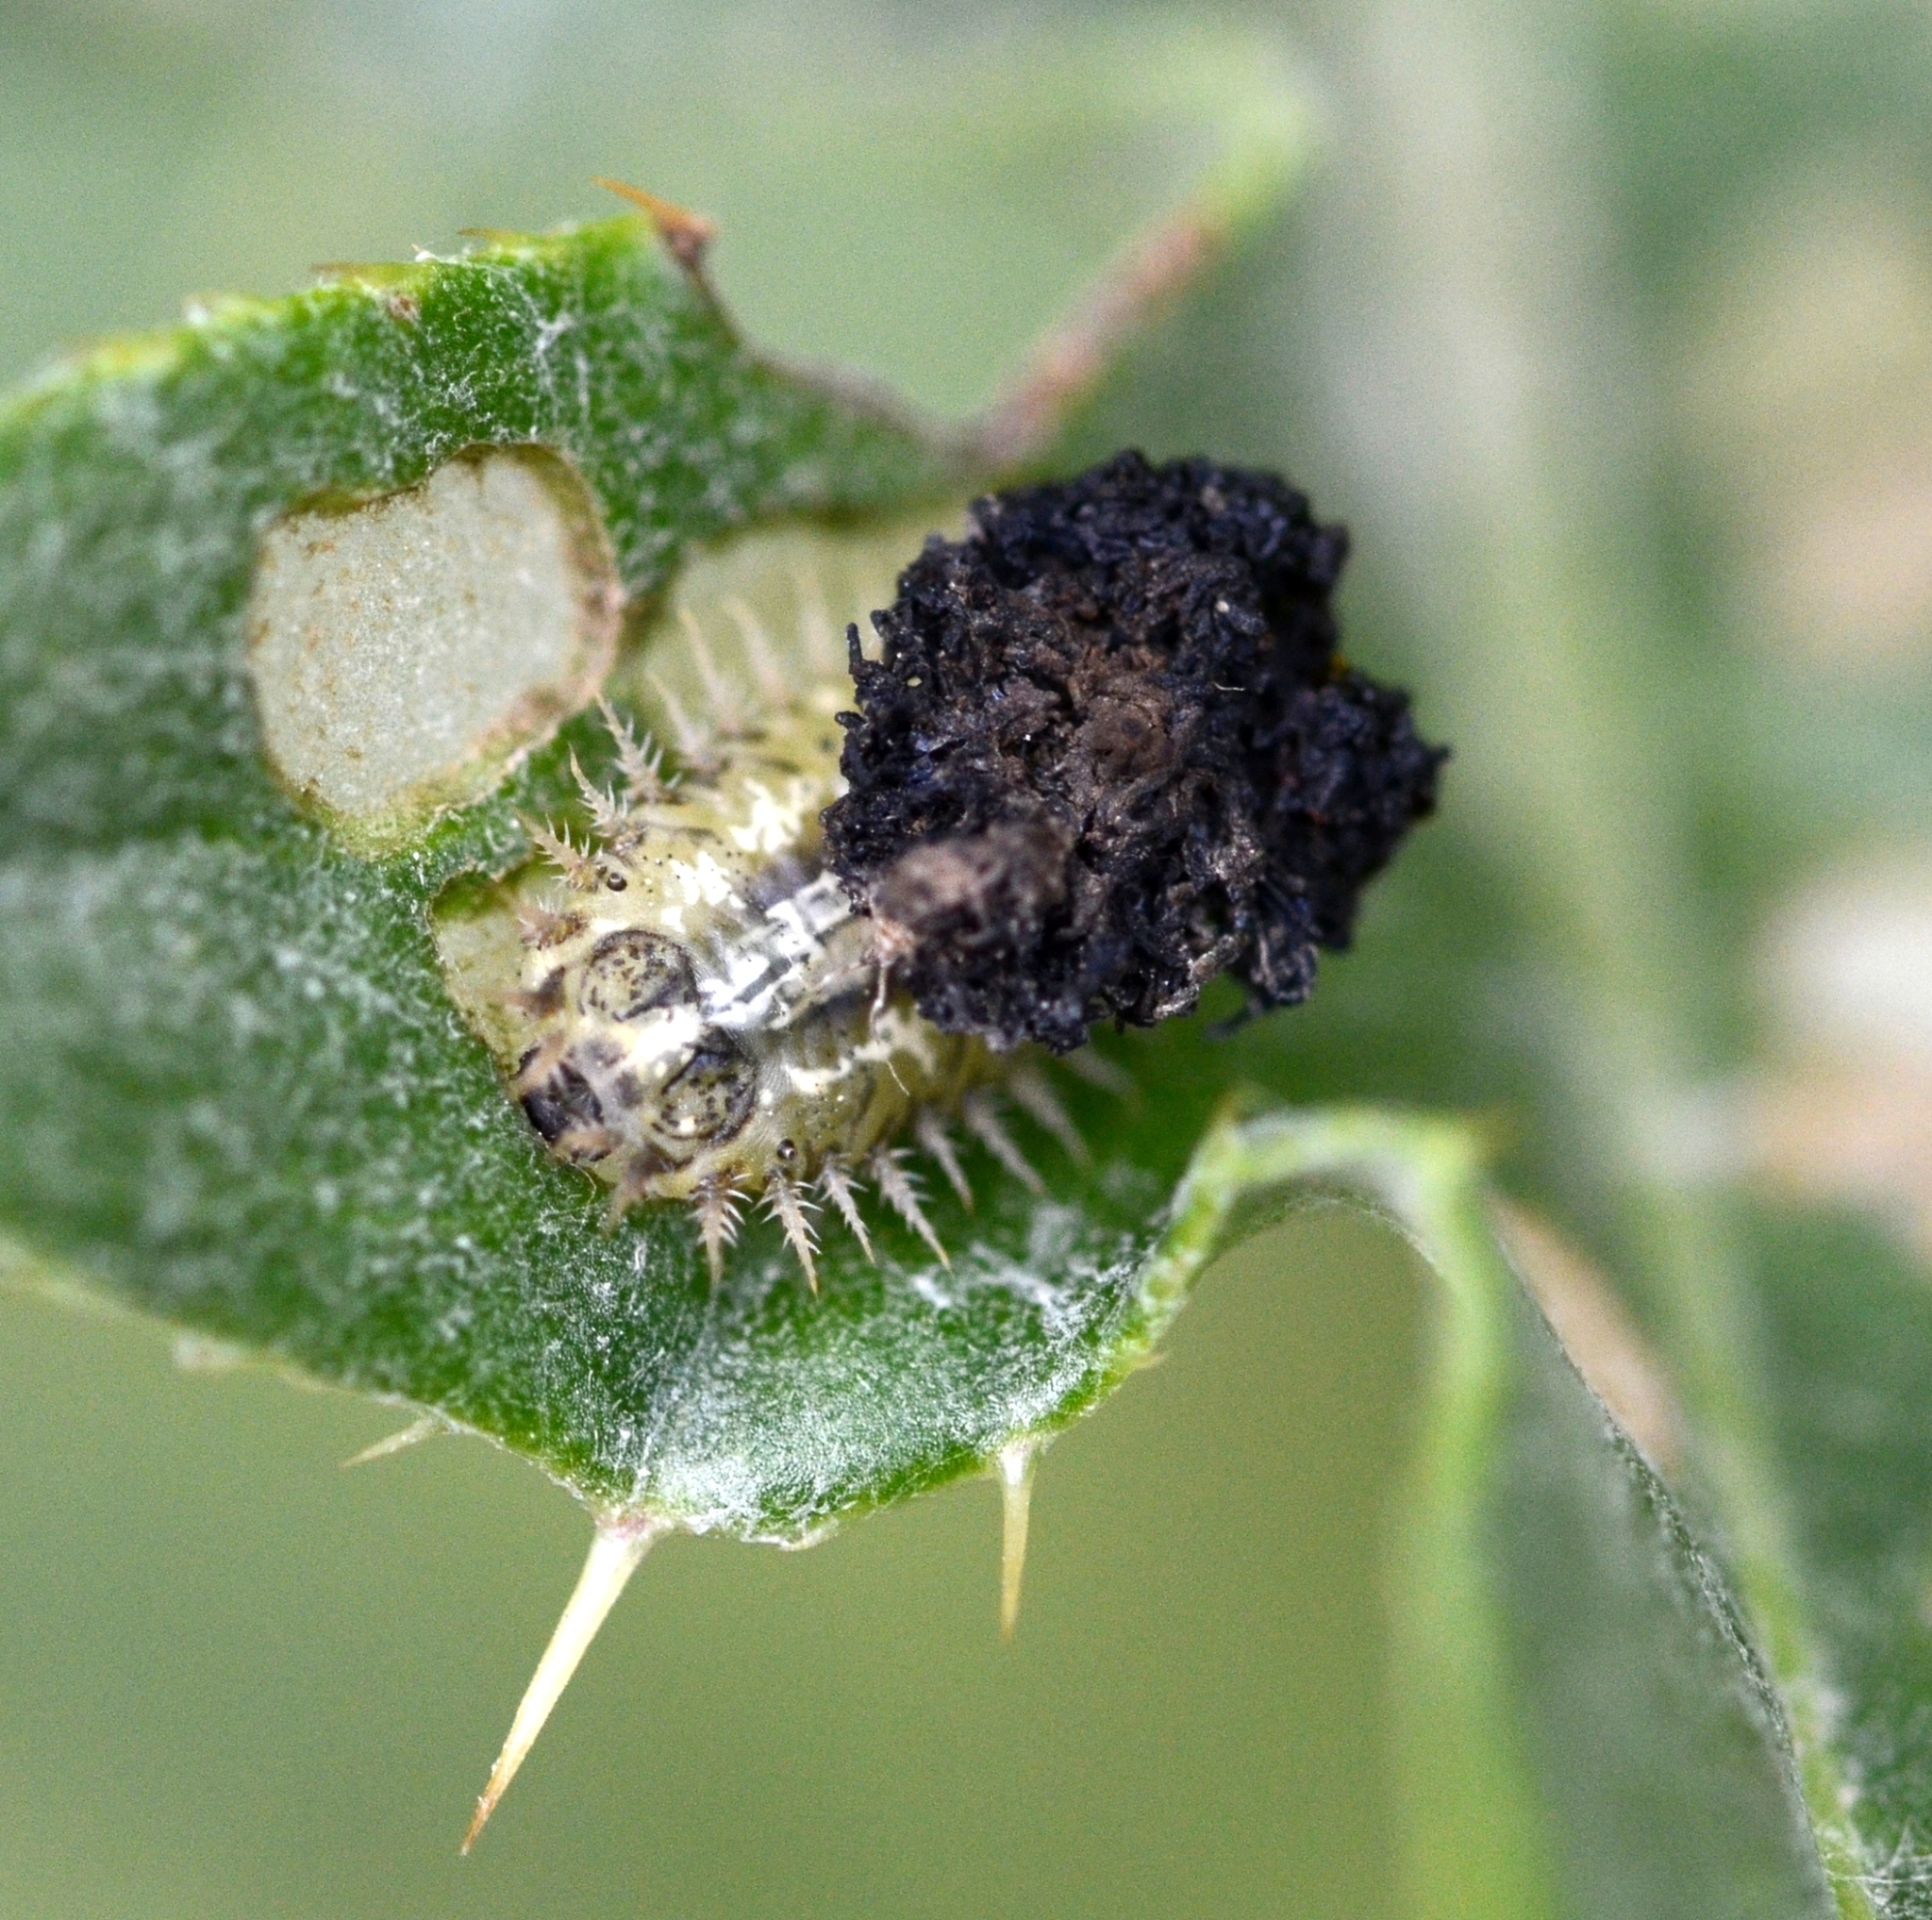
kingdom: Animalia
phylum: Arthropoda
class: Insecta
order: Coleoptera
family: Chrysomelidae
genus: Cassida
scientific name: Cassida rubiginosa
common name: Thistle tortoise beetle
